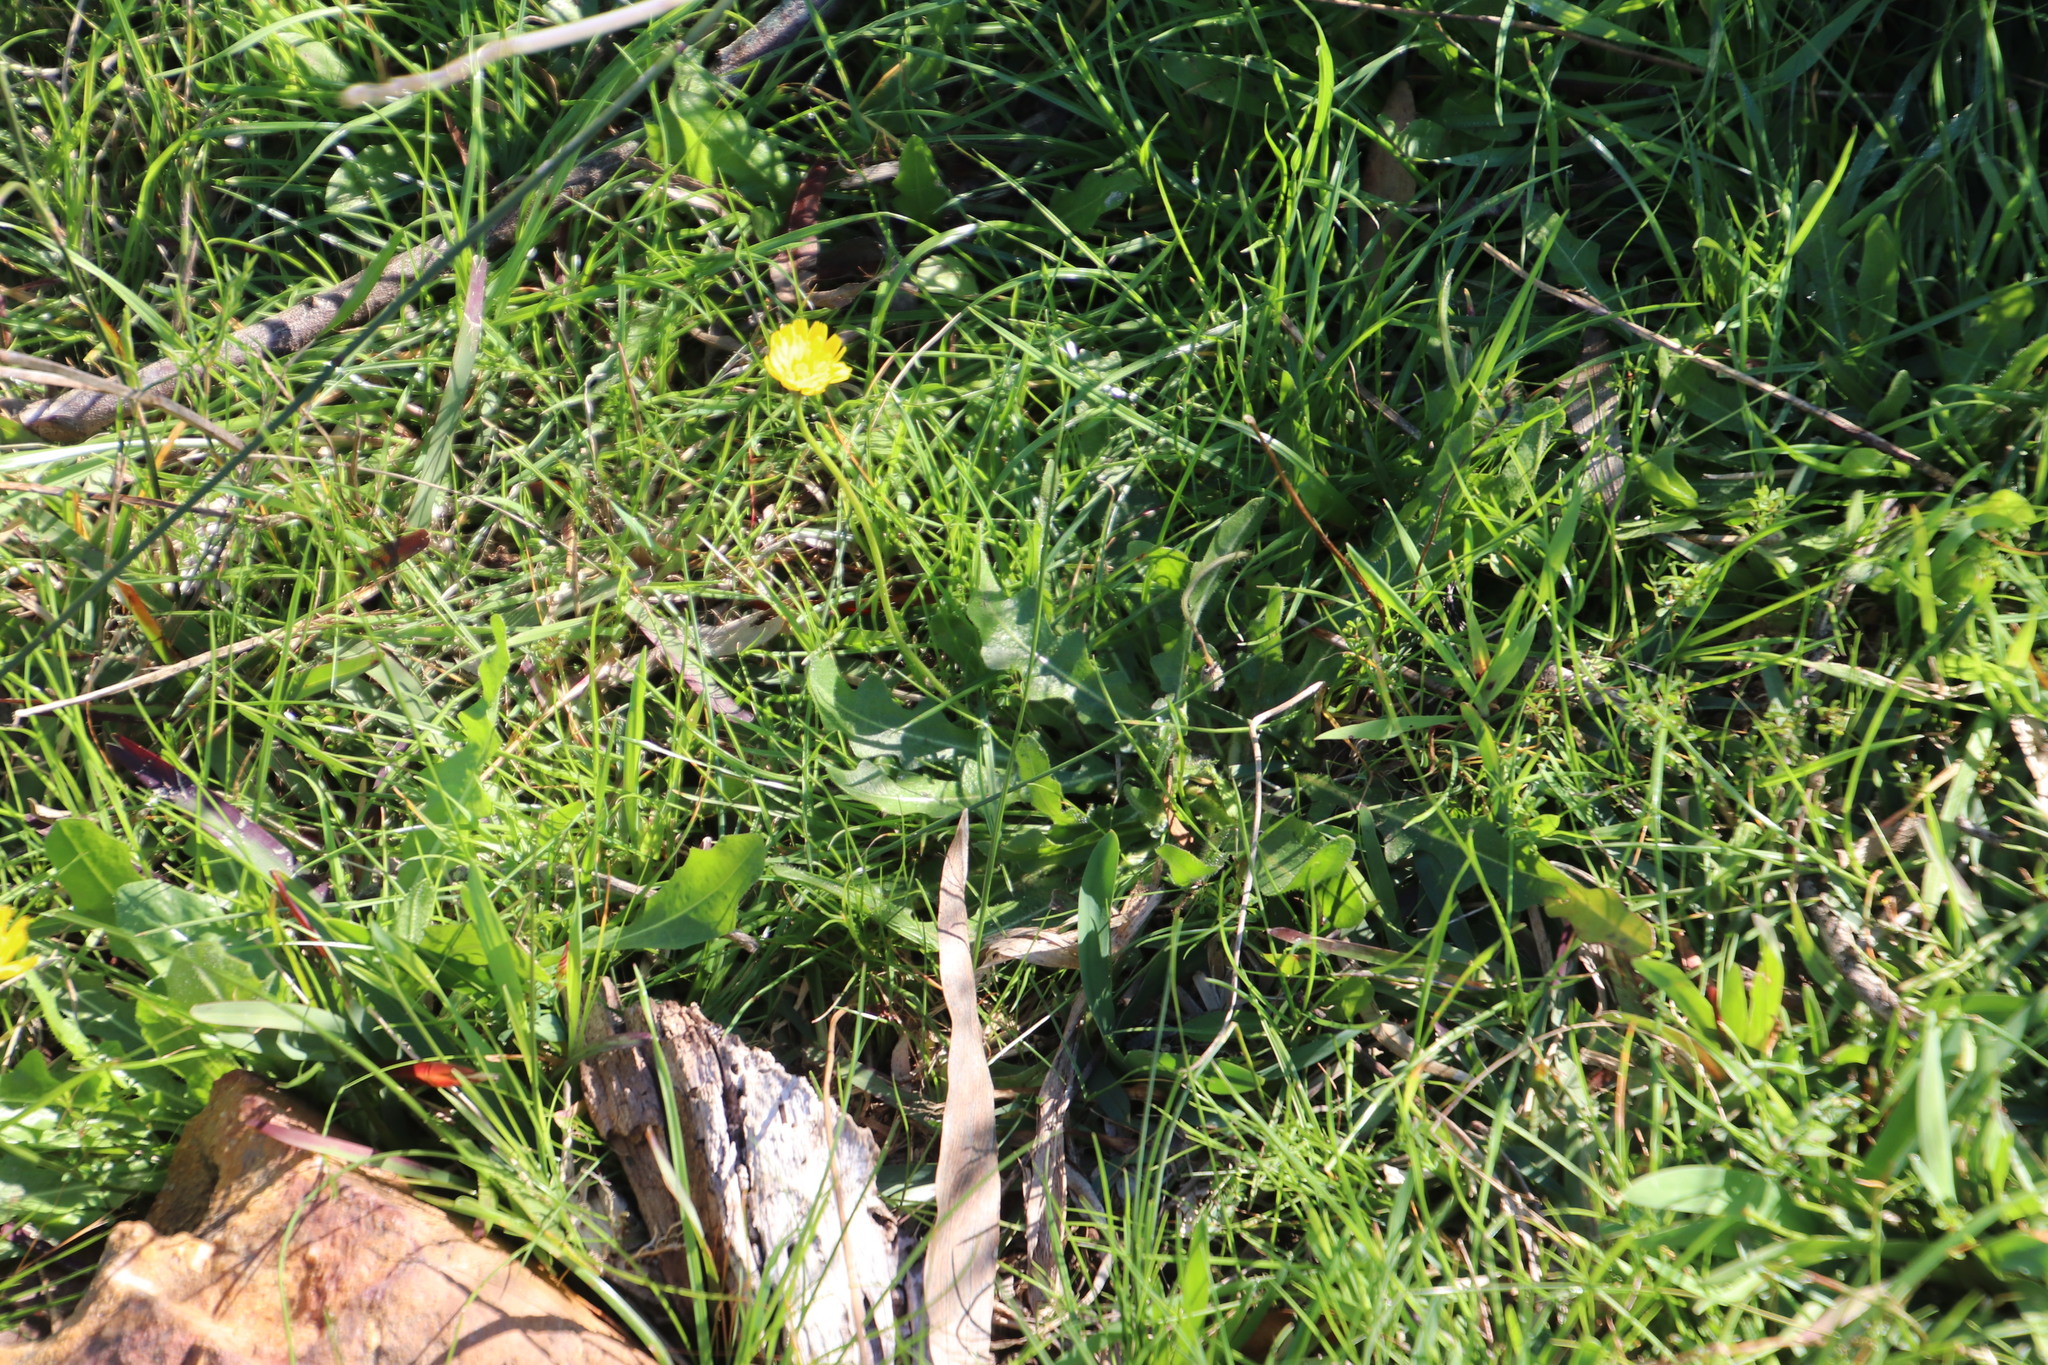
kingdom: Plantae
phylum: Tracheophyta
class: Magnoliopsida
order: Asterales
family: Asteraceae
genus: Hypochaeris
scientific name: Hypochaeris radicata
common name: Flatweed
